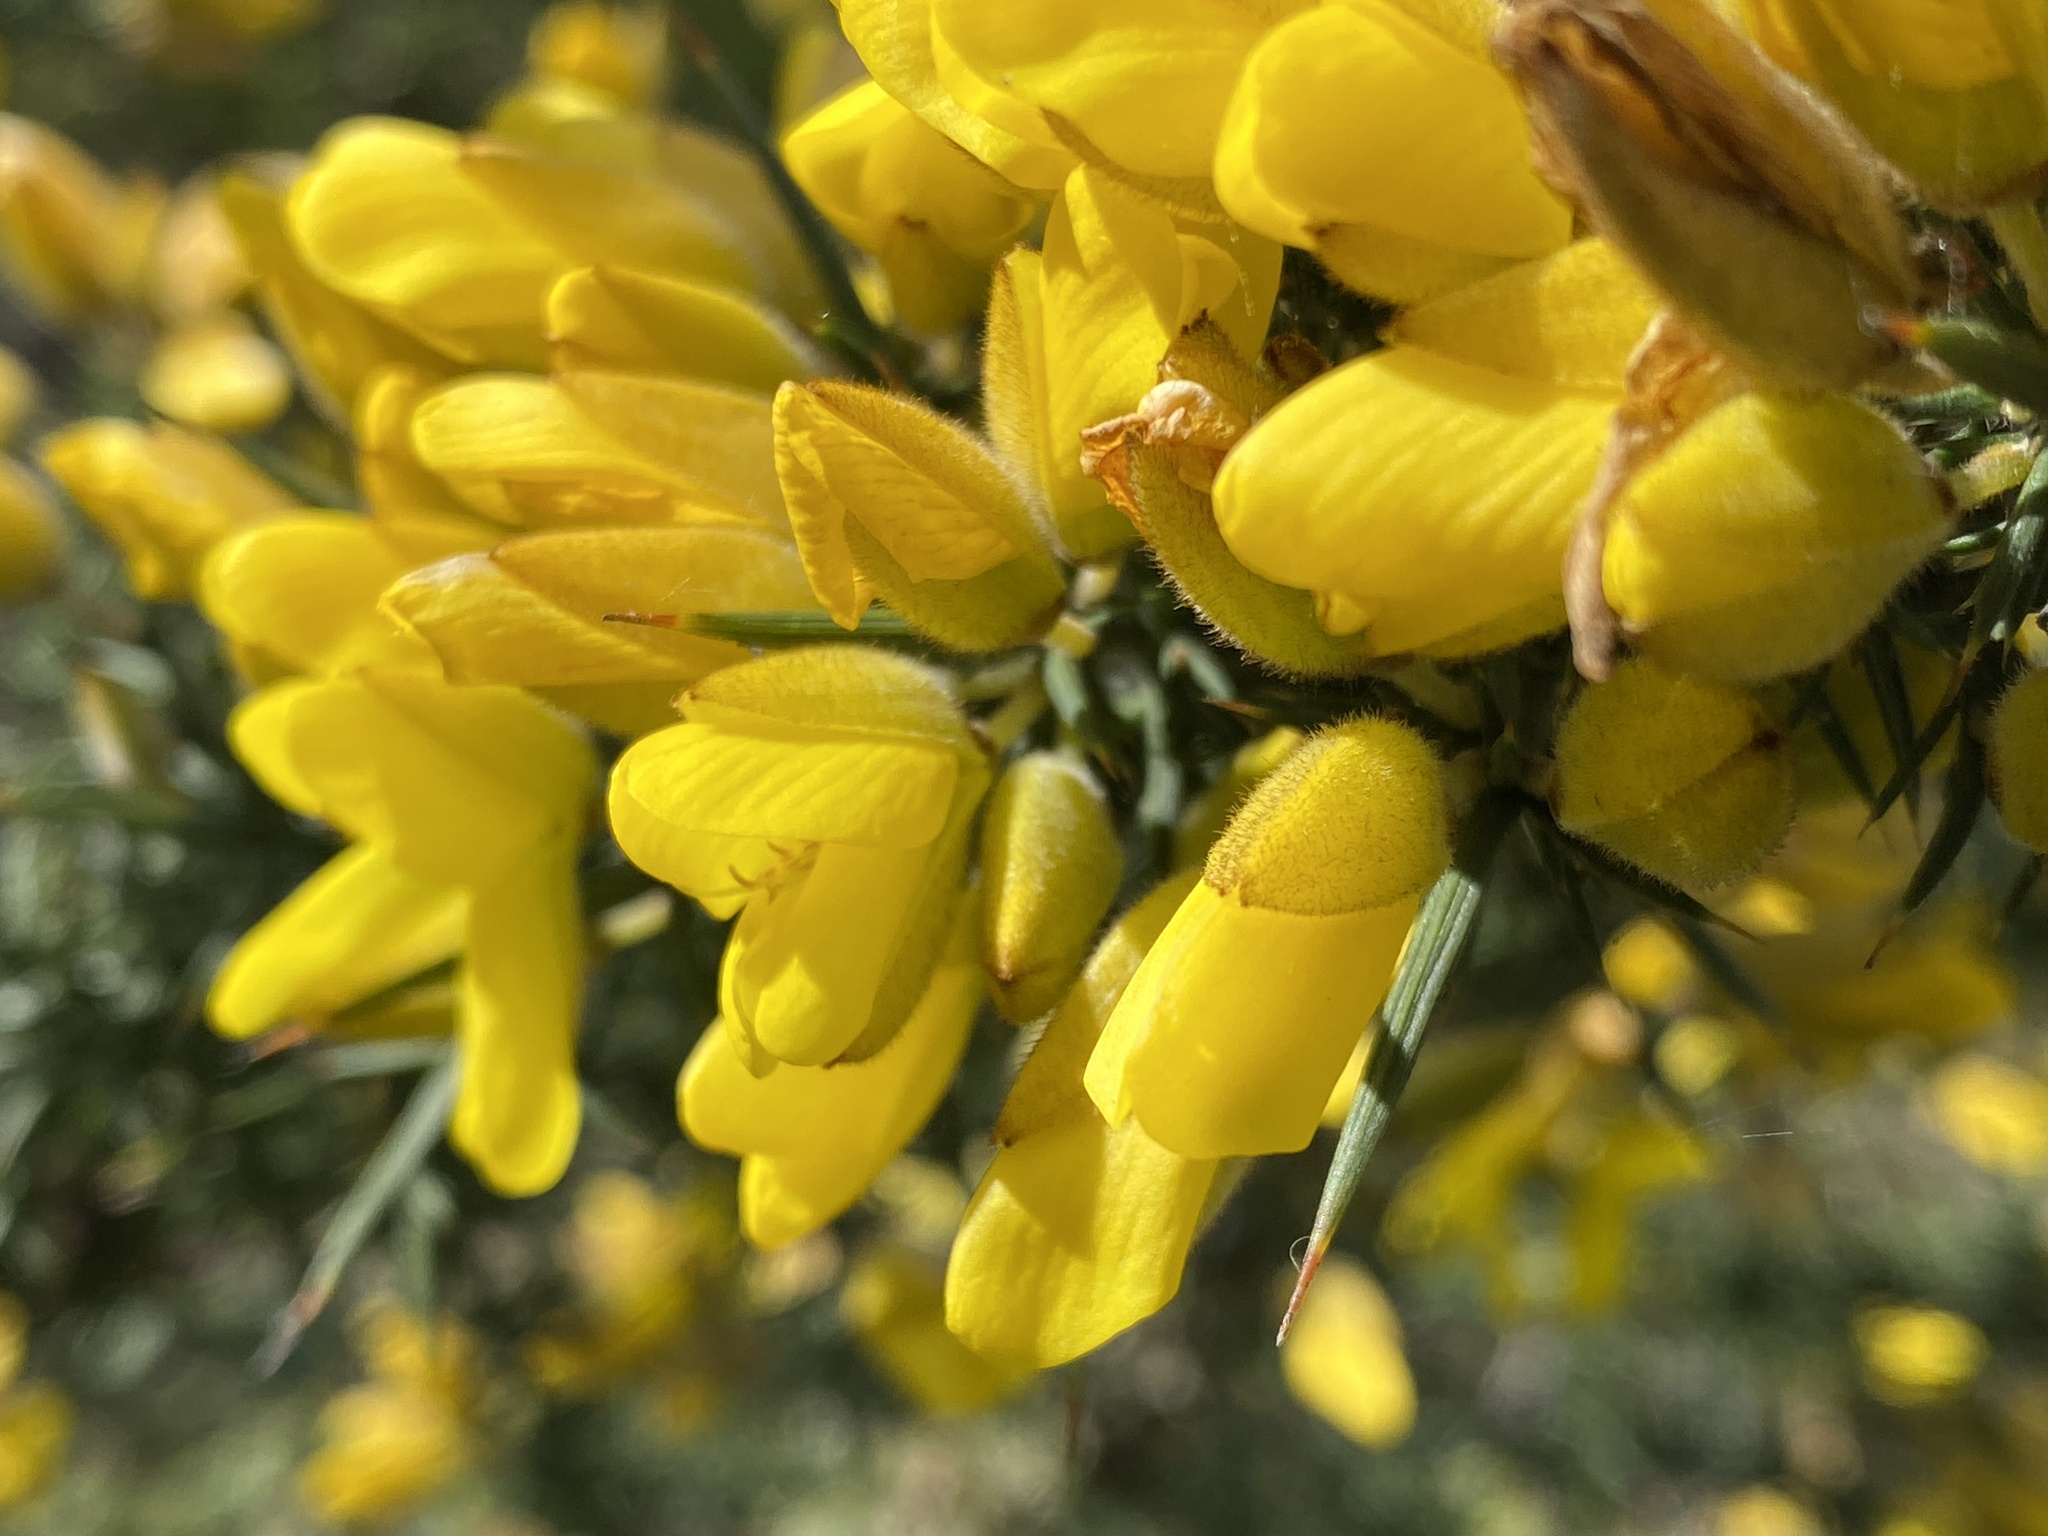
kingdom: Plantae
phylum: Tracheophyta
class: Magnoliopsida
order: Fabales
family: Fabaceae
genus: Ulex
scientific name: Ulex europaeus
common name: Common gorse
